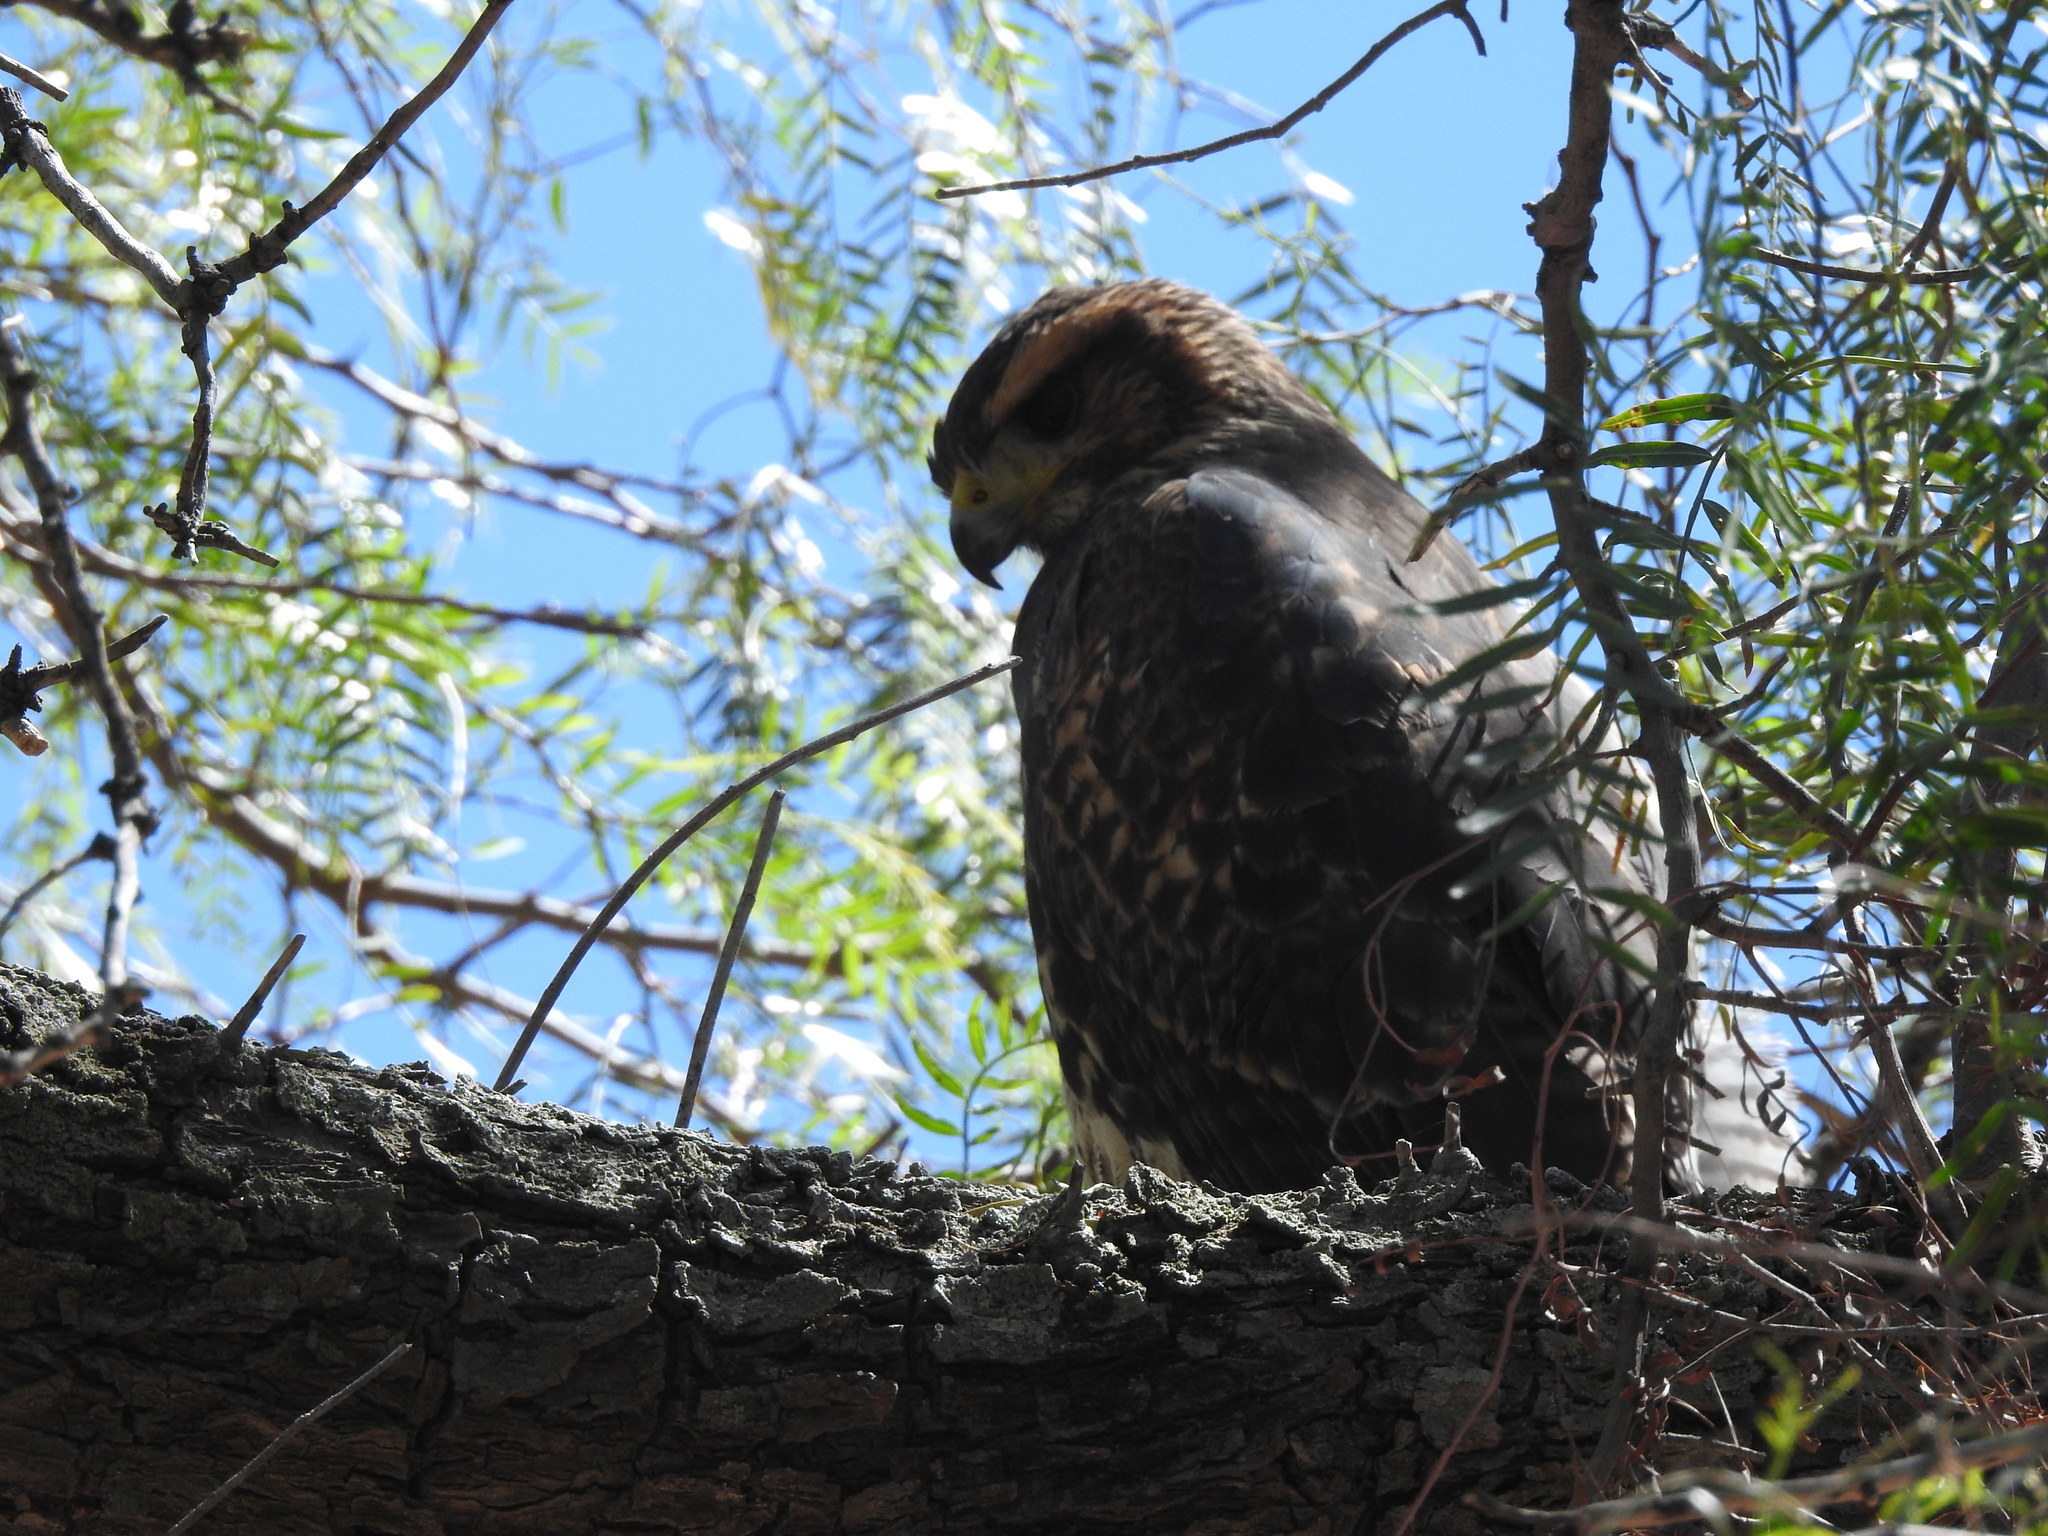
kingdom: Animalia
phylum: Chordata
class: Aves
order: Accipitriformes
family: Accipitridae
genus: Parabuteo
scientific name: Parabuteo unicinctus
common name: Harris's hawk
